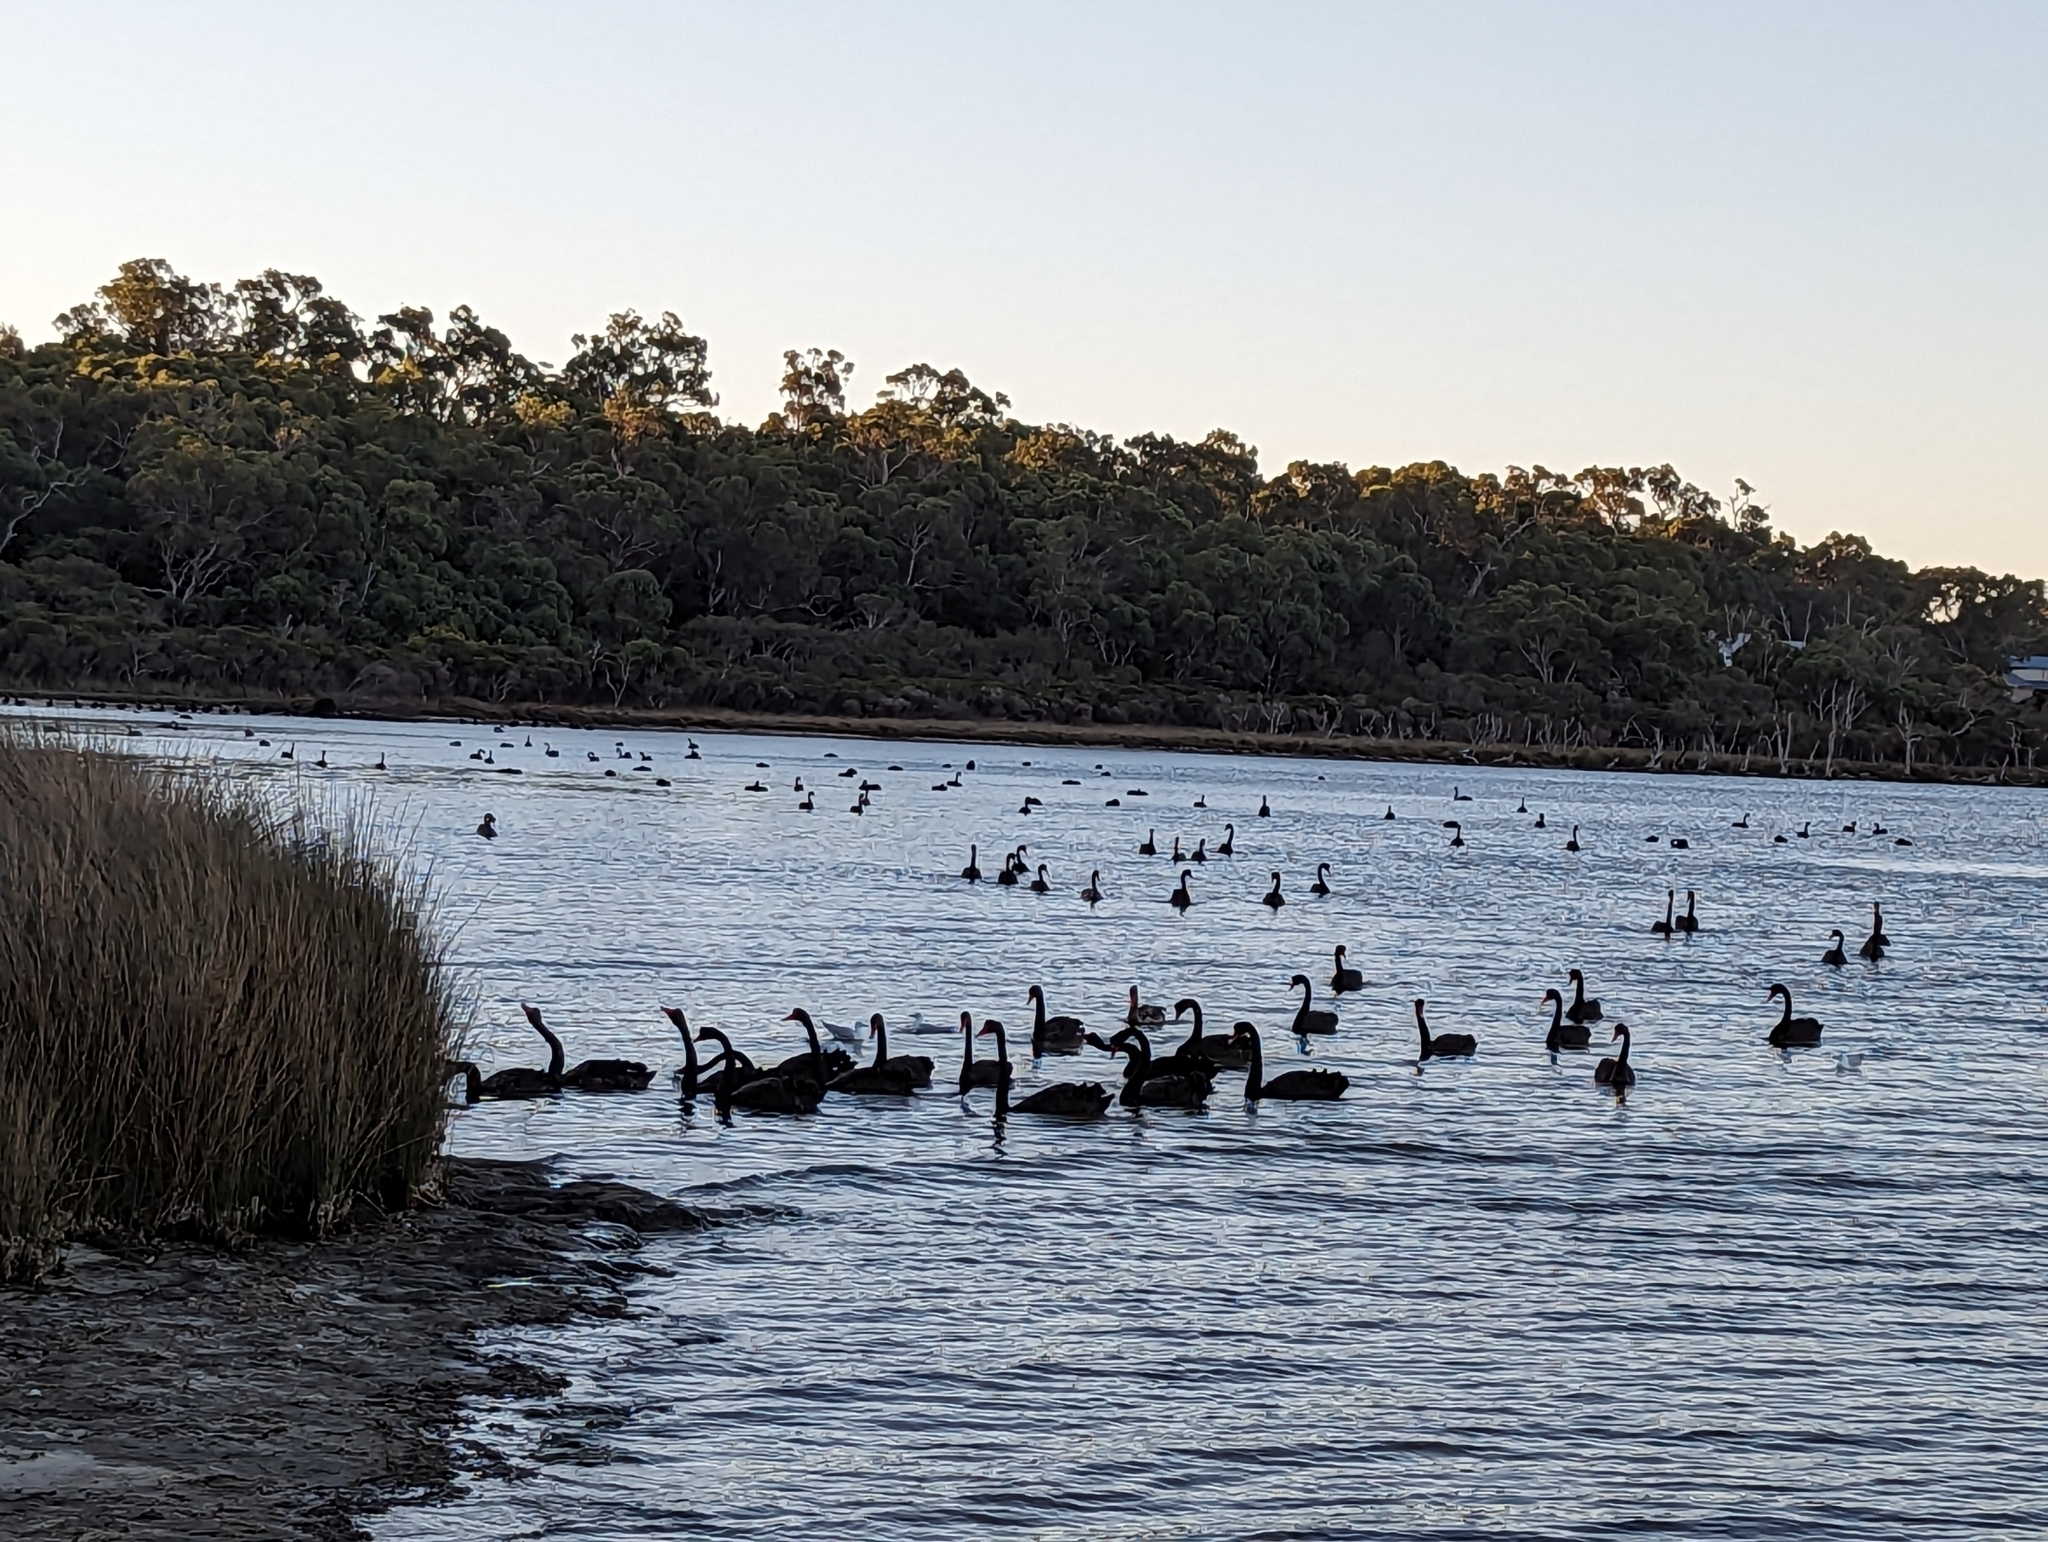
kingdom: Animalia
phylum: Chordata
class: Aves
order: Anseriformes
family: Anatidae
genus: Cygnus
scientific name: Cygnus atratus
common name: Black swan
